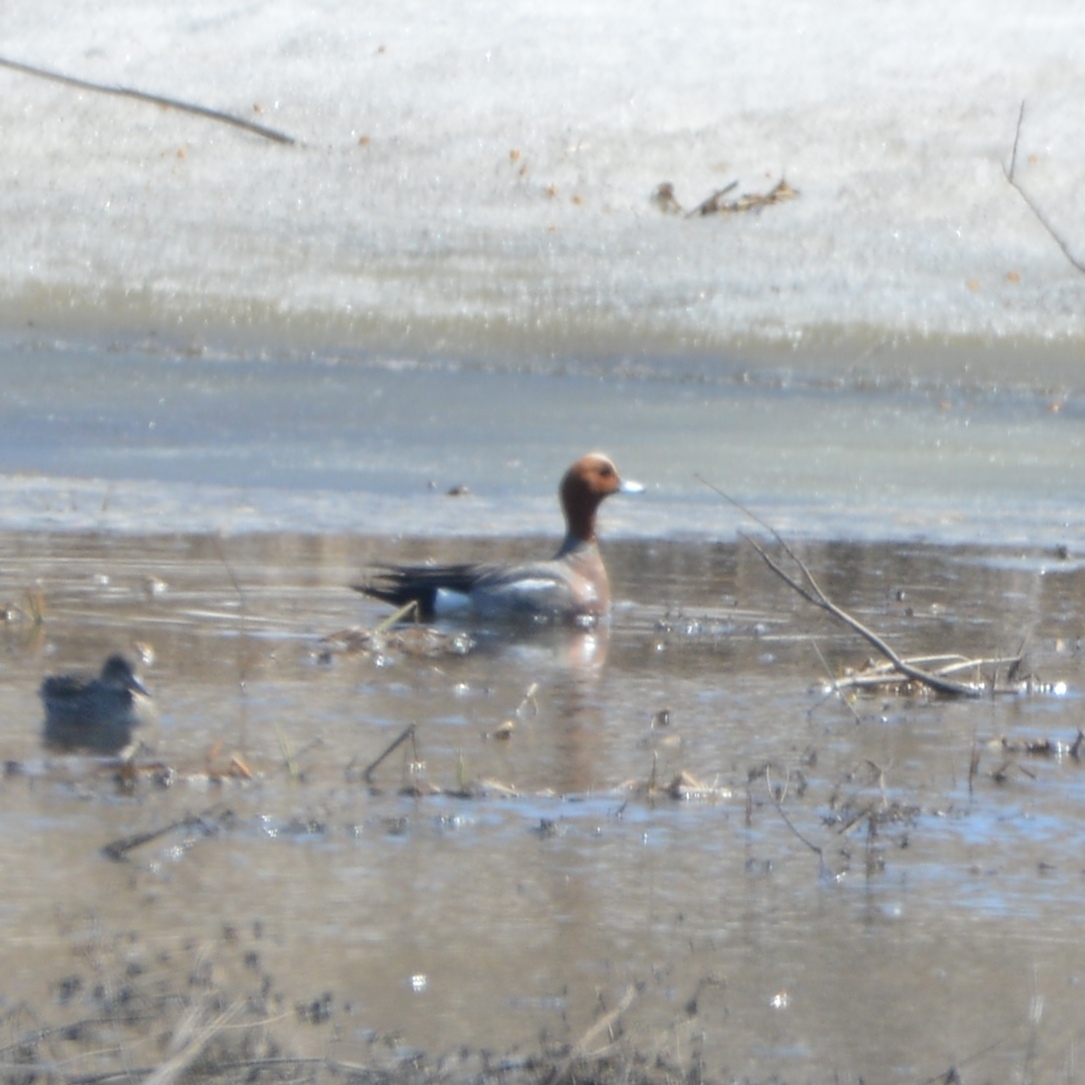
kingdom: Animalia
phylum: Chordata
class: Aves
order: Anseriformes
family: Anatidae
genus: Mareca
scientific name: Mareca penelope
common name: Eurasian wigeon
